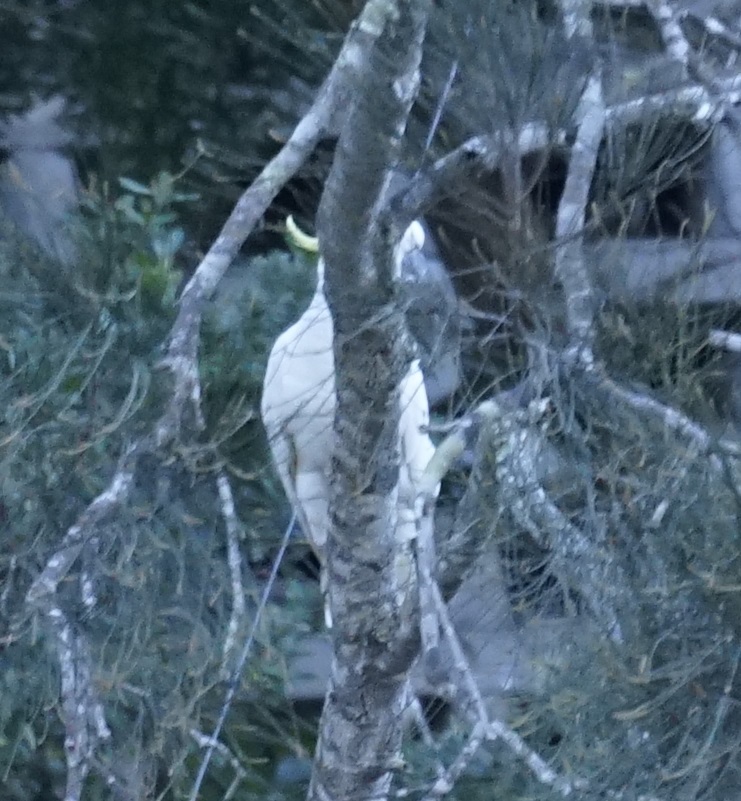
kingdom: Animalia
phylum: Chordata
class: Aves
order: Psittaciformes
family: Psittacidae
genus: Cacatua
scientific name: Cacatua galerita
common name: Sulphur-crested cockatoo
